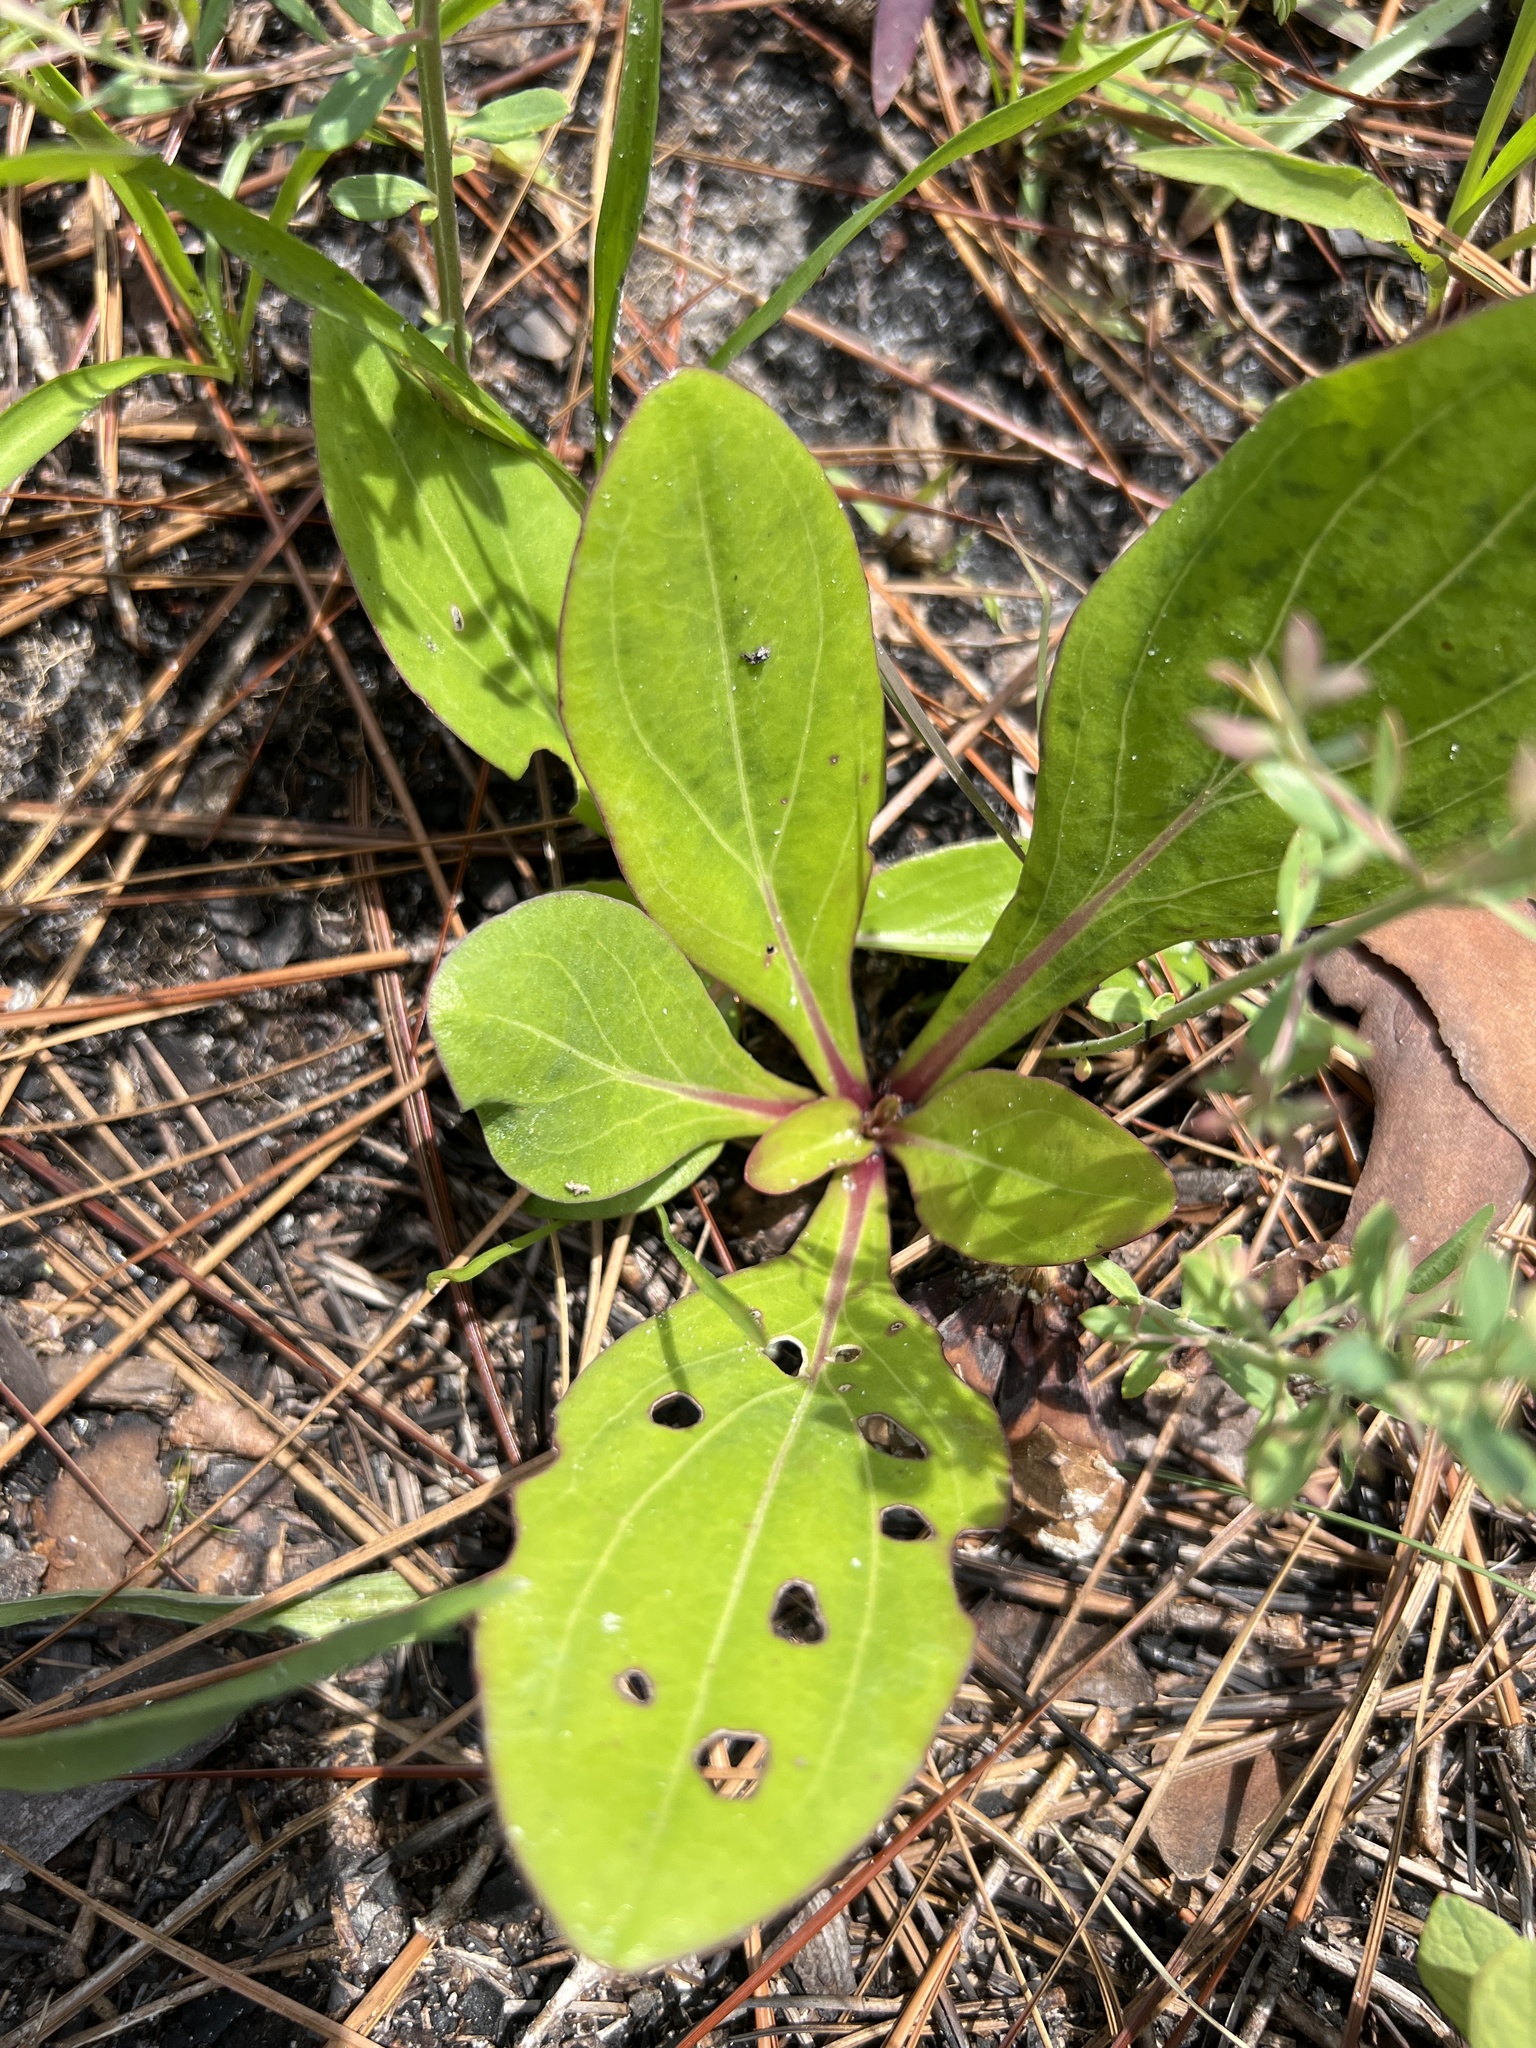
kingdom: Plantae
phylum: Tracheophyta
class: Magnoliopsida
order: Asterales
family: Asteraceae
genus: Carphephorus
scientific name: Carphephorus odoratissimus
